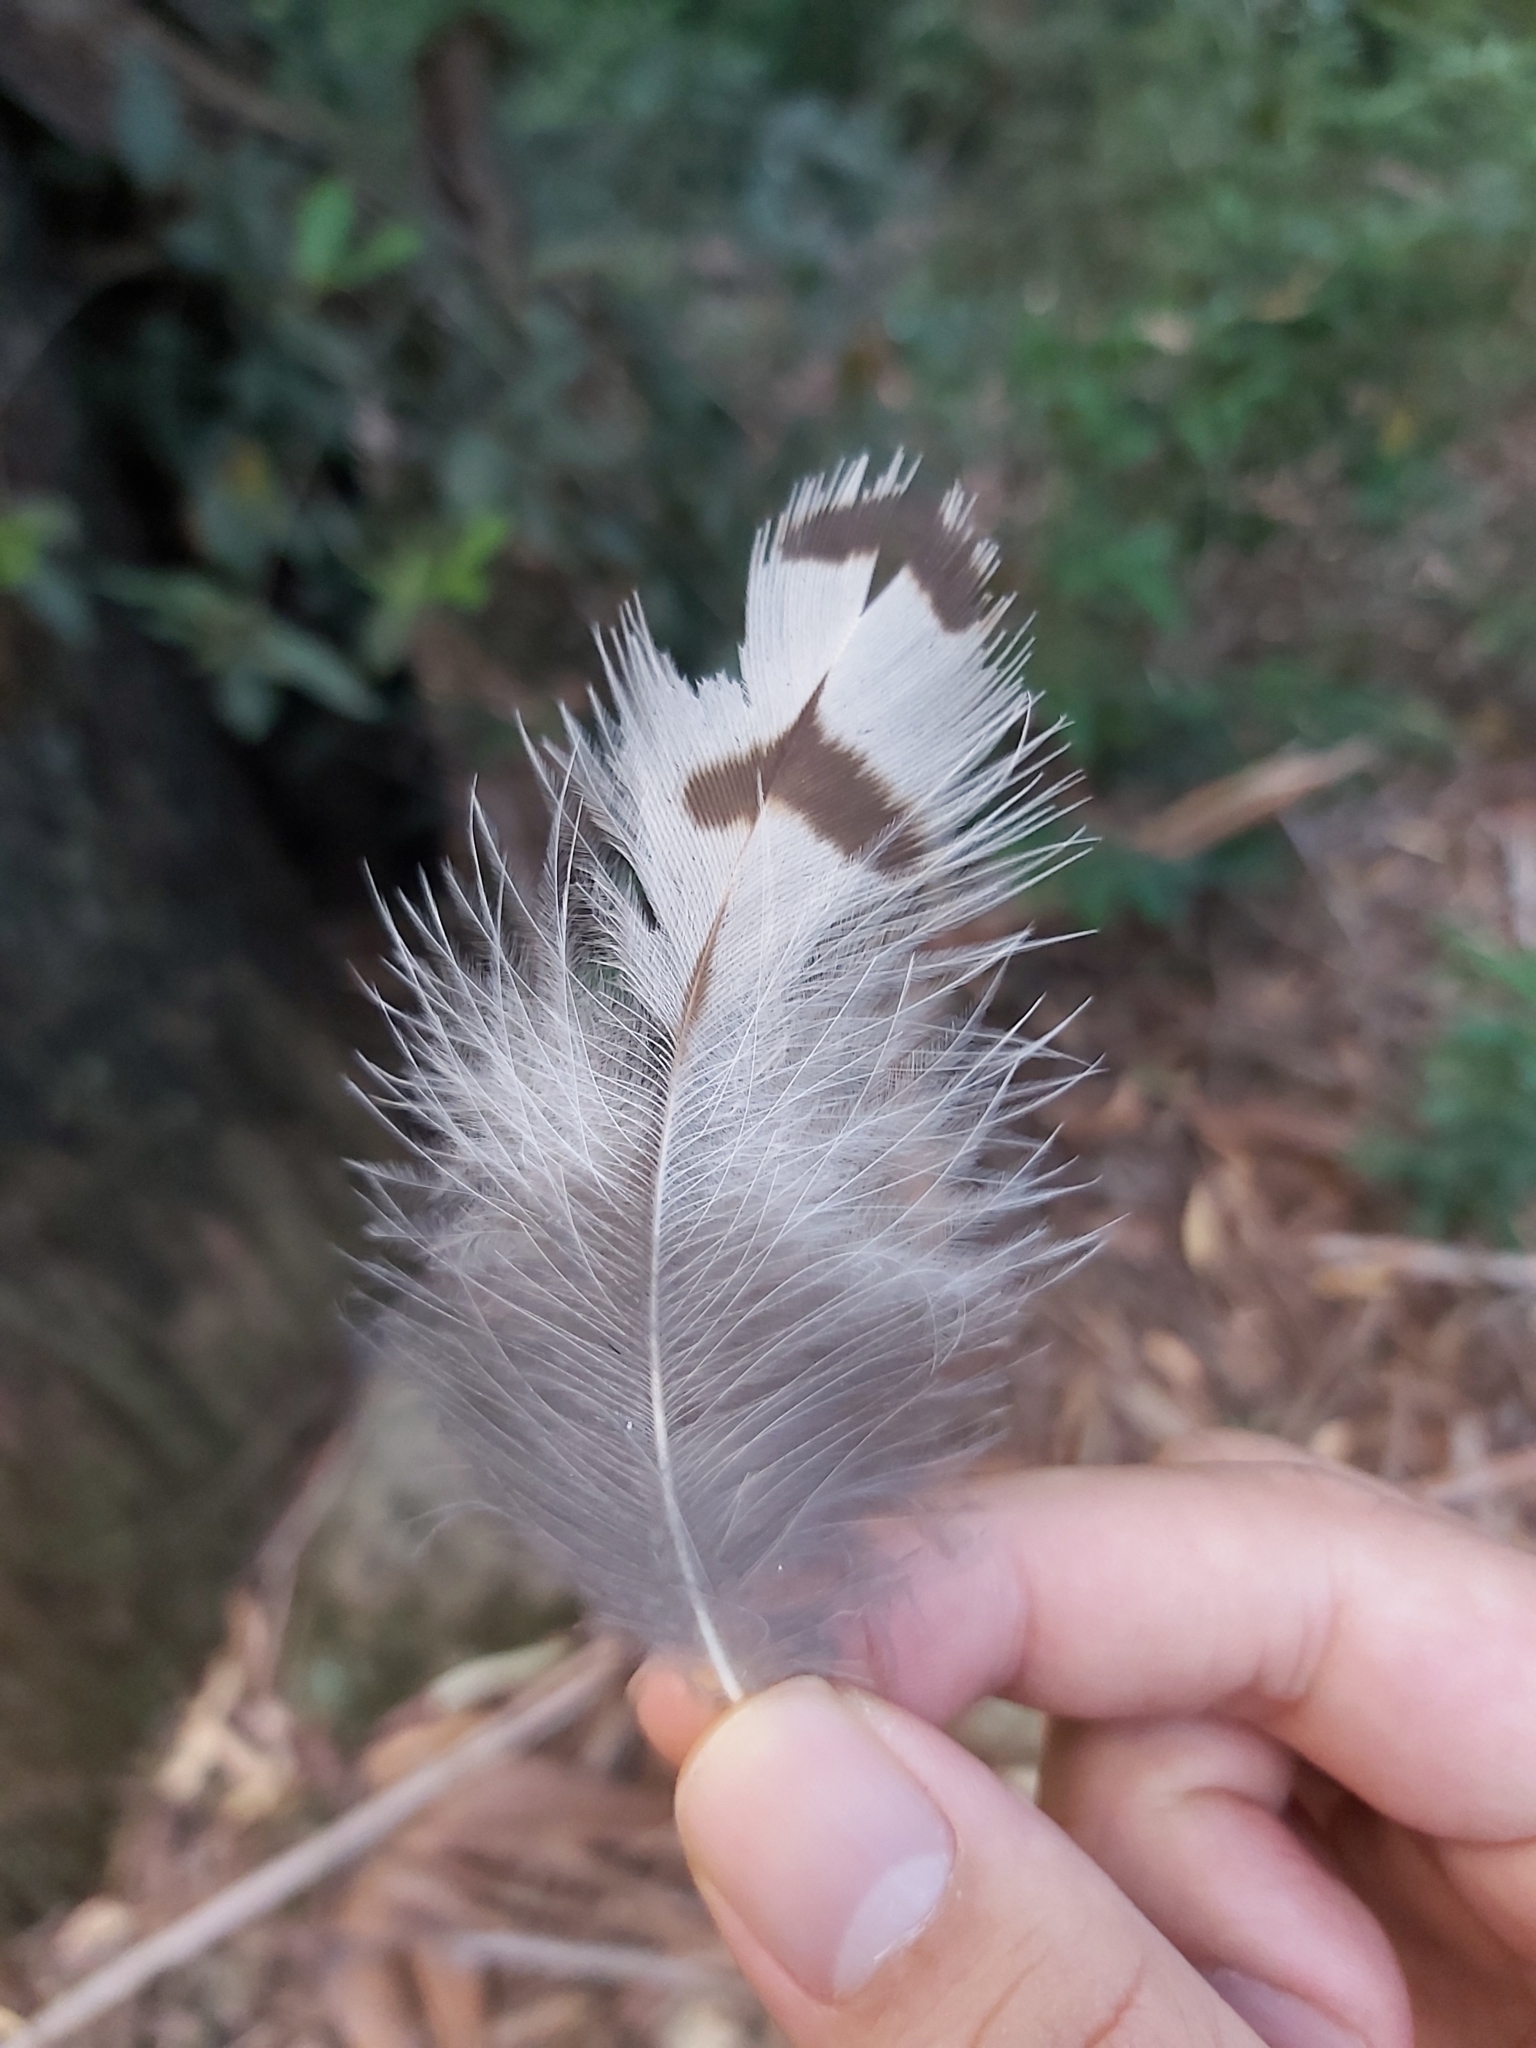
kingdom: Animalia
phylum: Chordata
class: Aves
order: Strigiformes
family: Strigidae
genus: Ninox
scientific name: Ninox strenua
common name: Powerful owl
